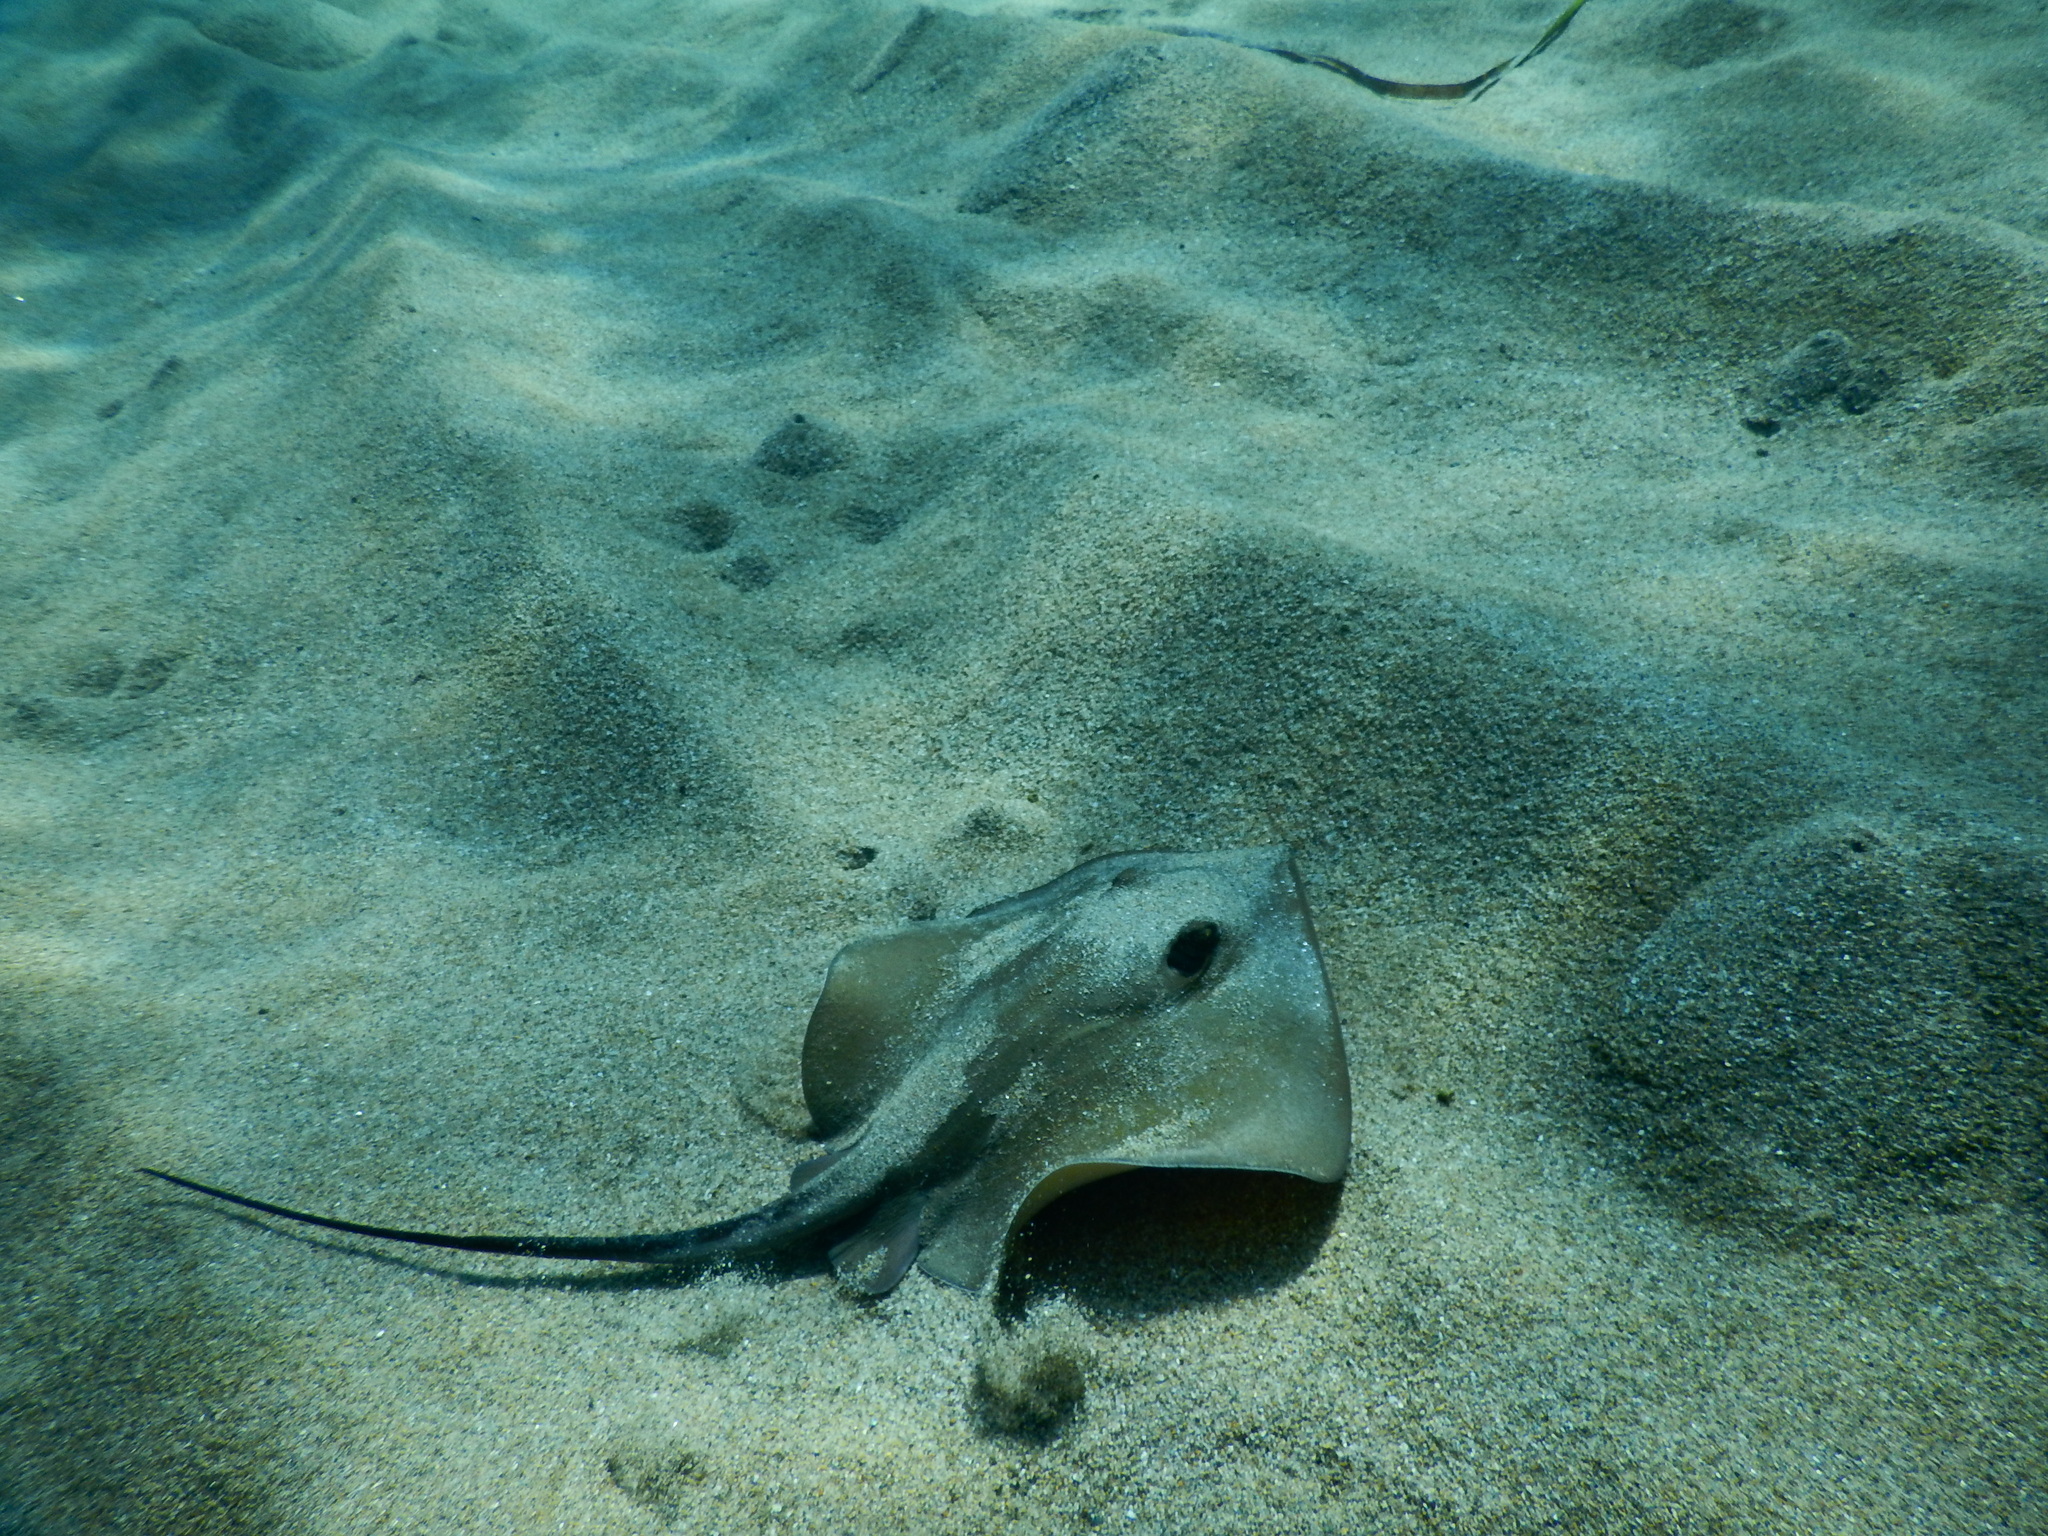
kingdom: Animalia
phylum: Chordata
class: Elasmobranchii
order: Myliobatiformes
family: Dasyatidae
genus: Dasyatis
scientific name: Dasyatis pastinaca
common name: Common stingray
